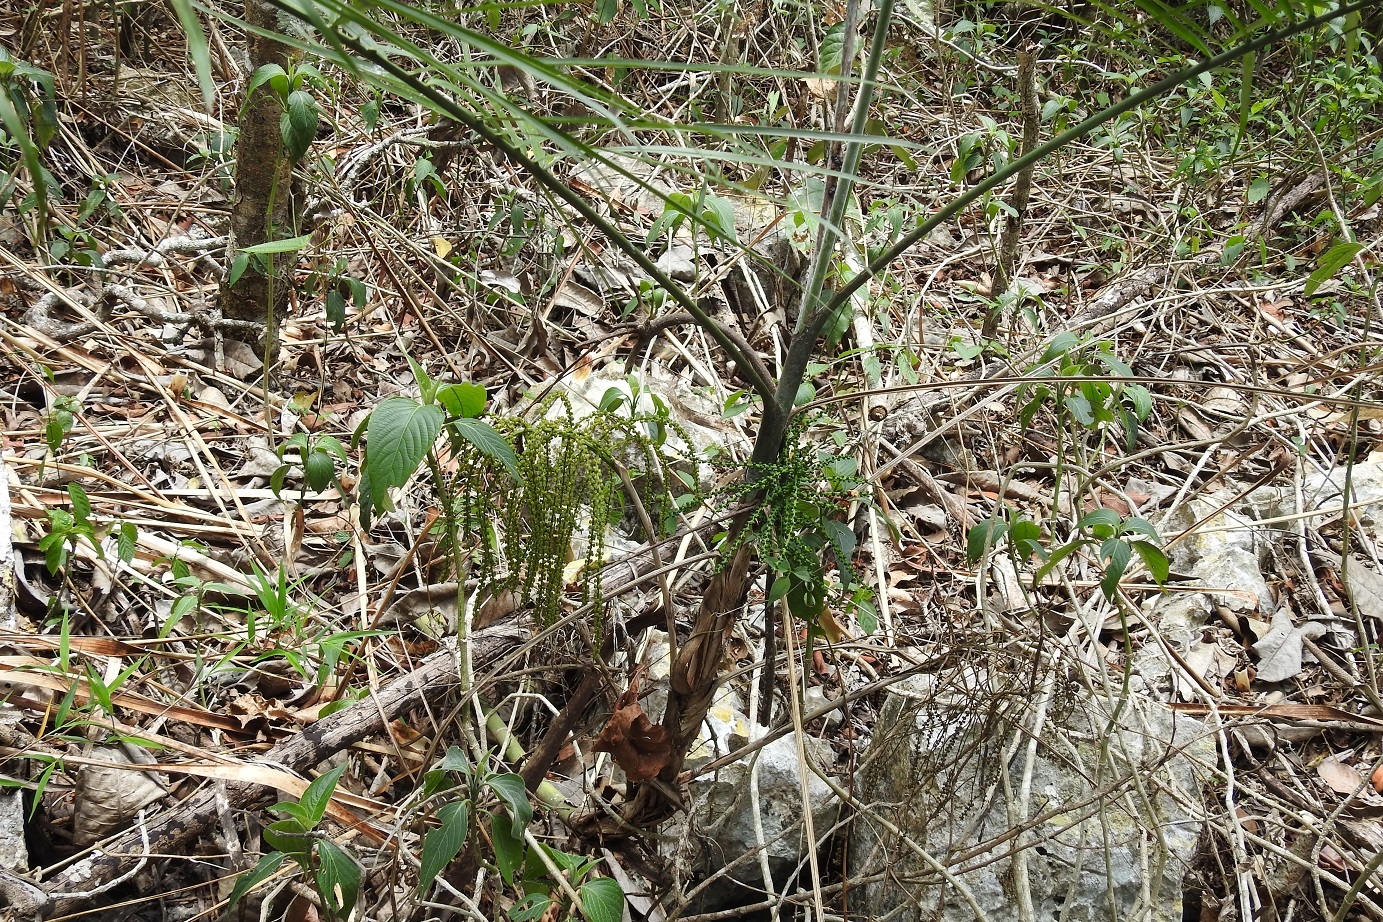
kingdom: Plantae
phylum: Tracheophyta
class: Liliopsida
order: Arecales
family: Arecaceae
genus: Chamaedorea
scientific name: Chamaedorea glaucifolia
